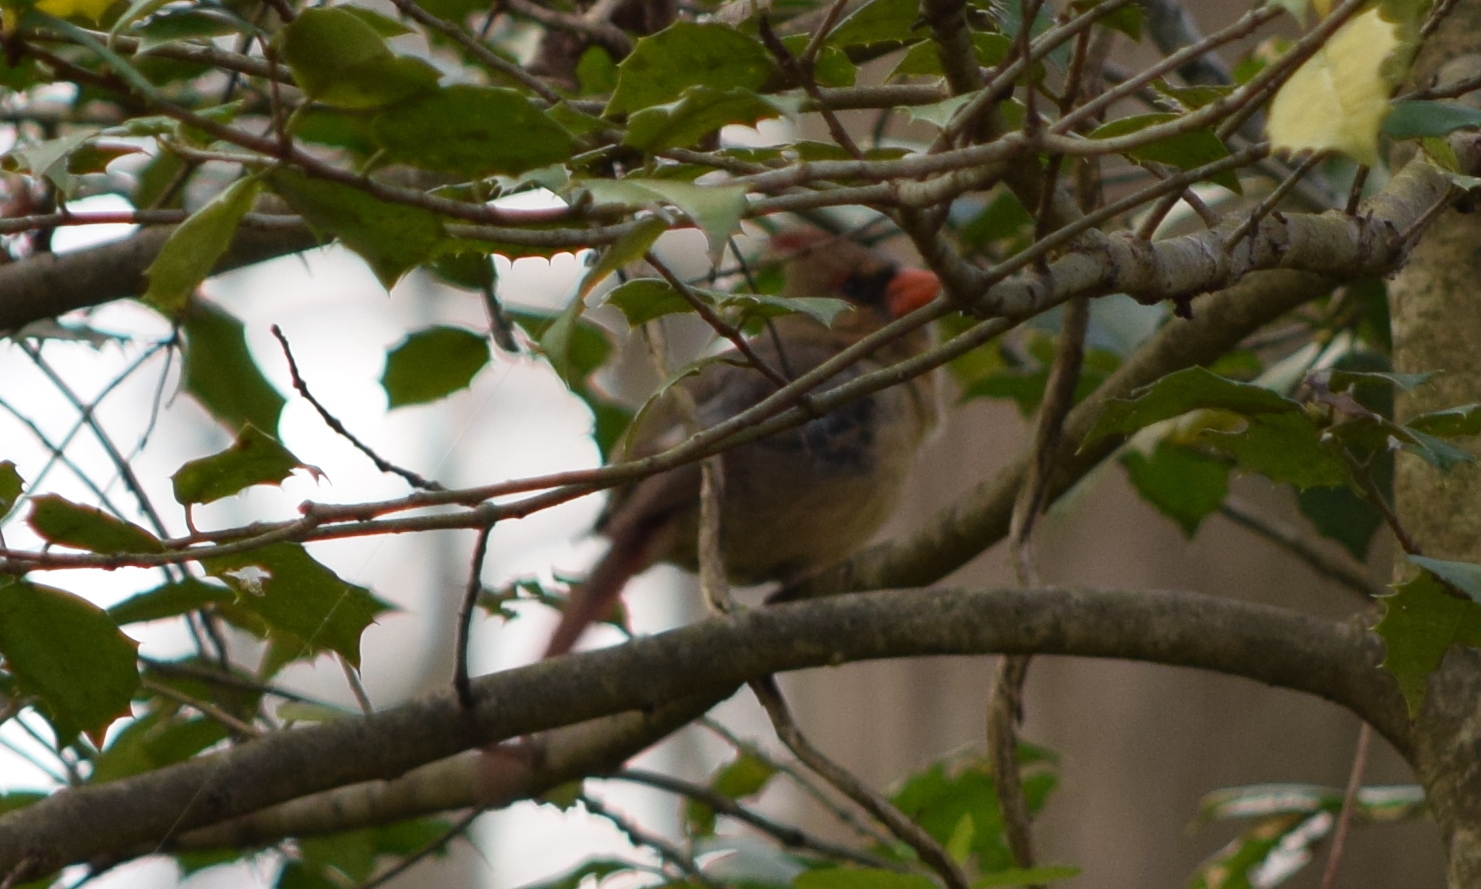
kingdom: Animalia
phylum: Chordata
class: Aves
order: Passeriformes
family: Cardinalidae
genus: Cardinalis
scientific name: Cardinalis cardinalis
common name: Northern cardinal
